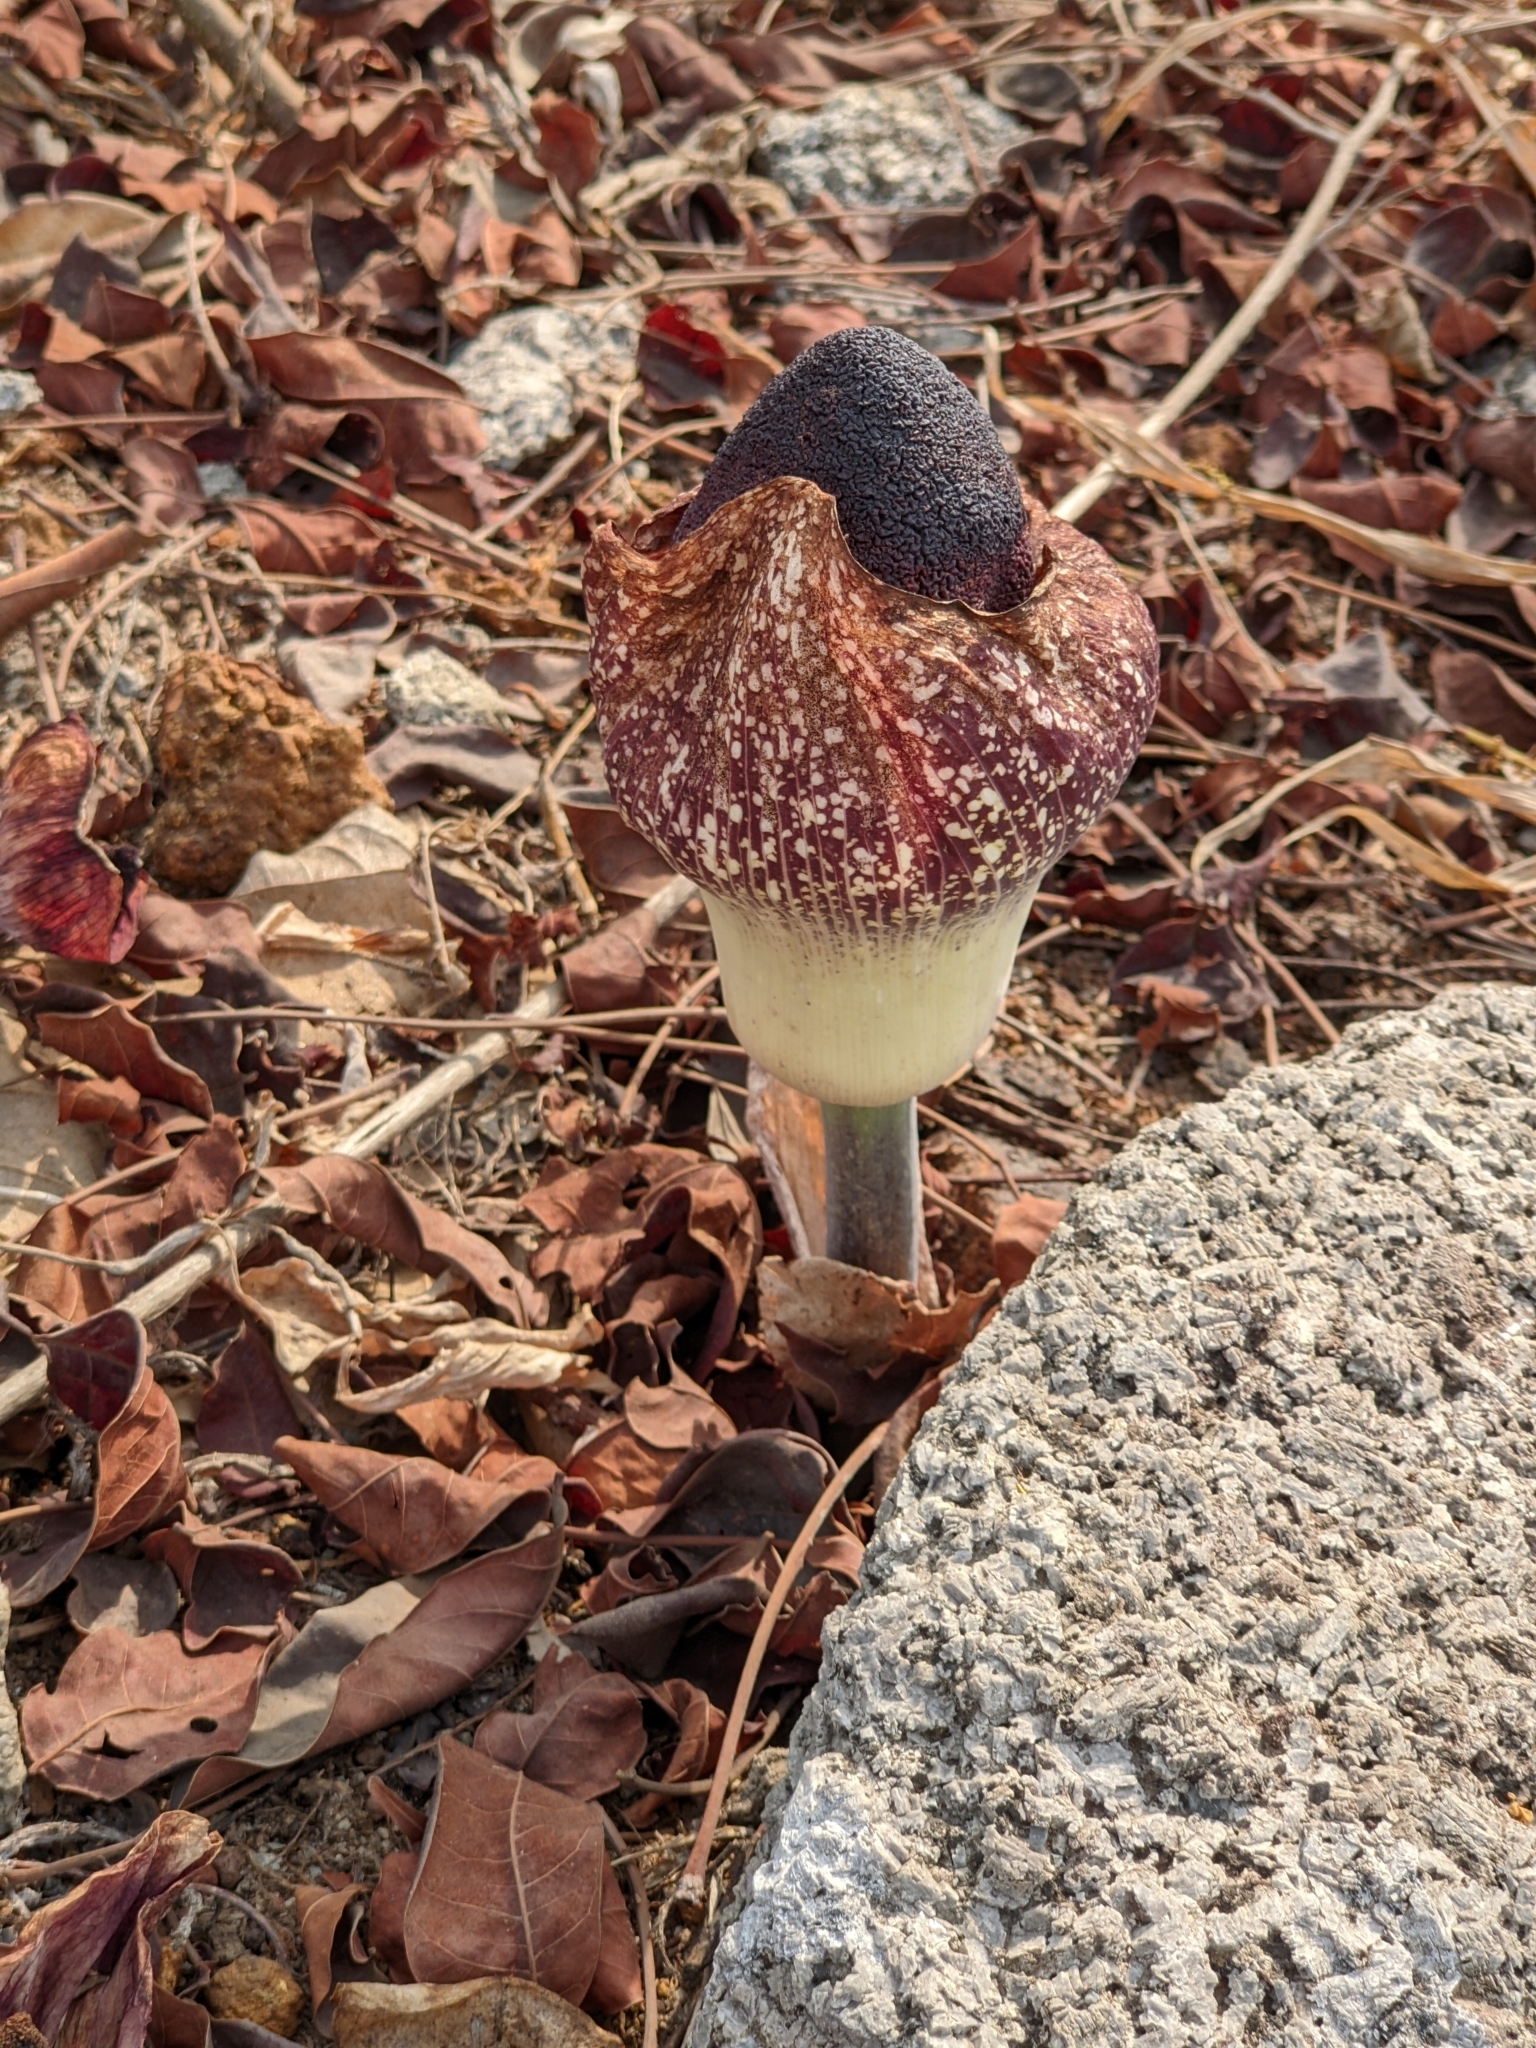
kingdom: Plantae
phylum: Tracheophyta
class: Liliopsida
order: Alismatales
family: Araceae
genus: Amorphophallus
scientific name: Amorphophallus aphyllus
